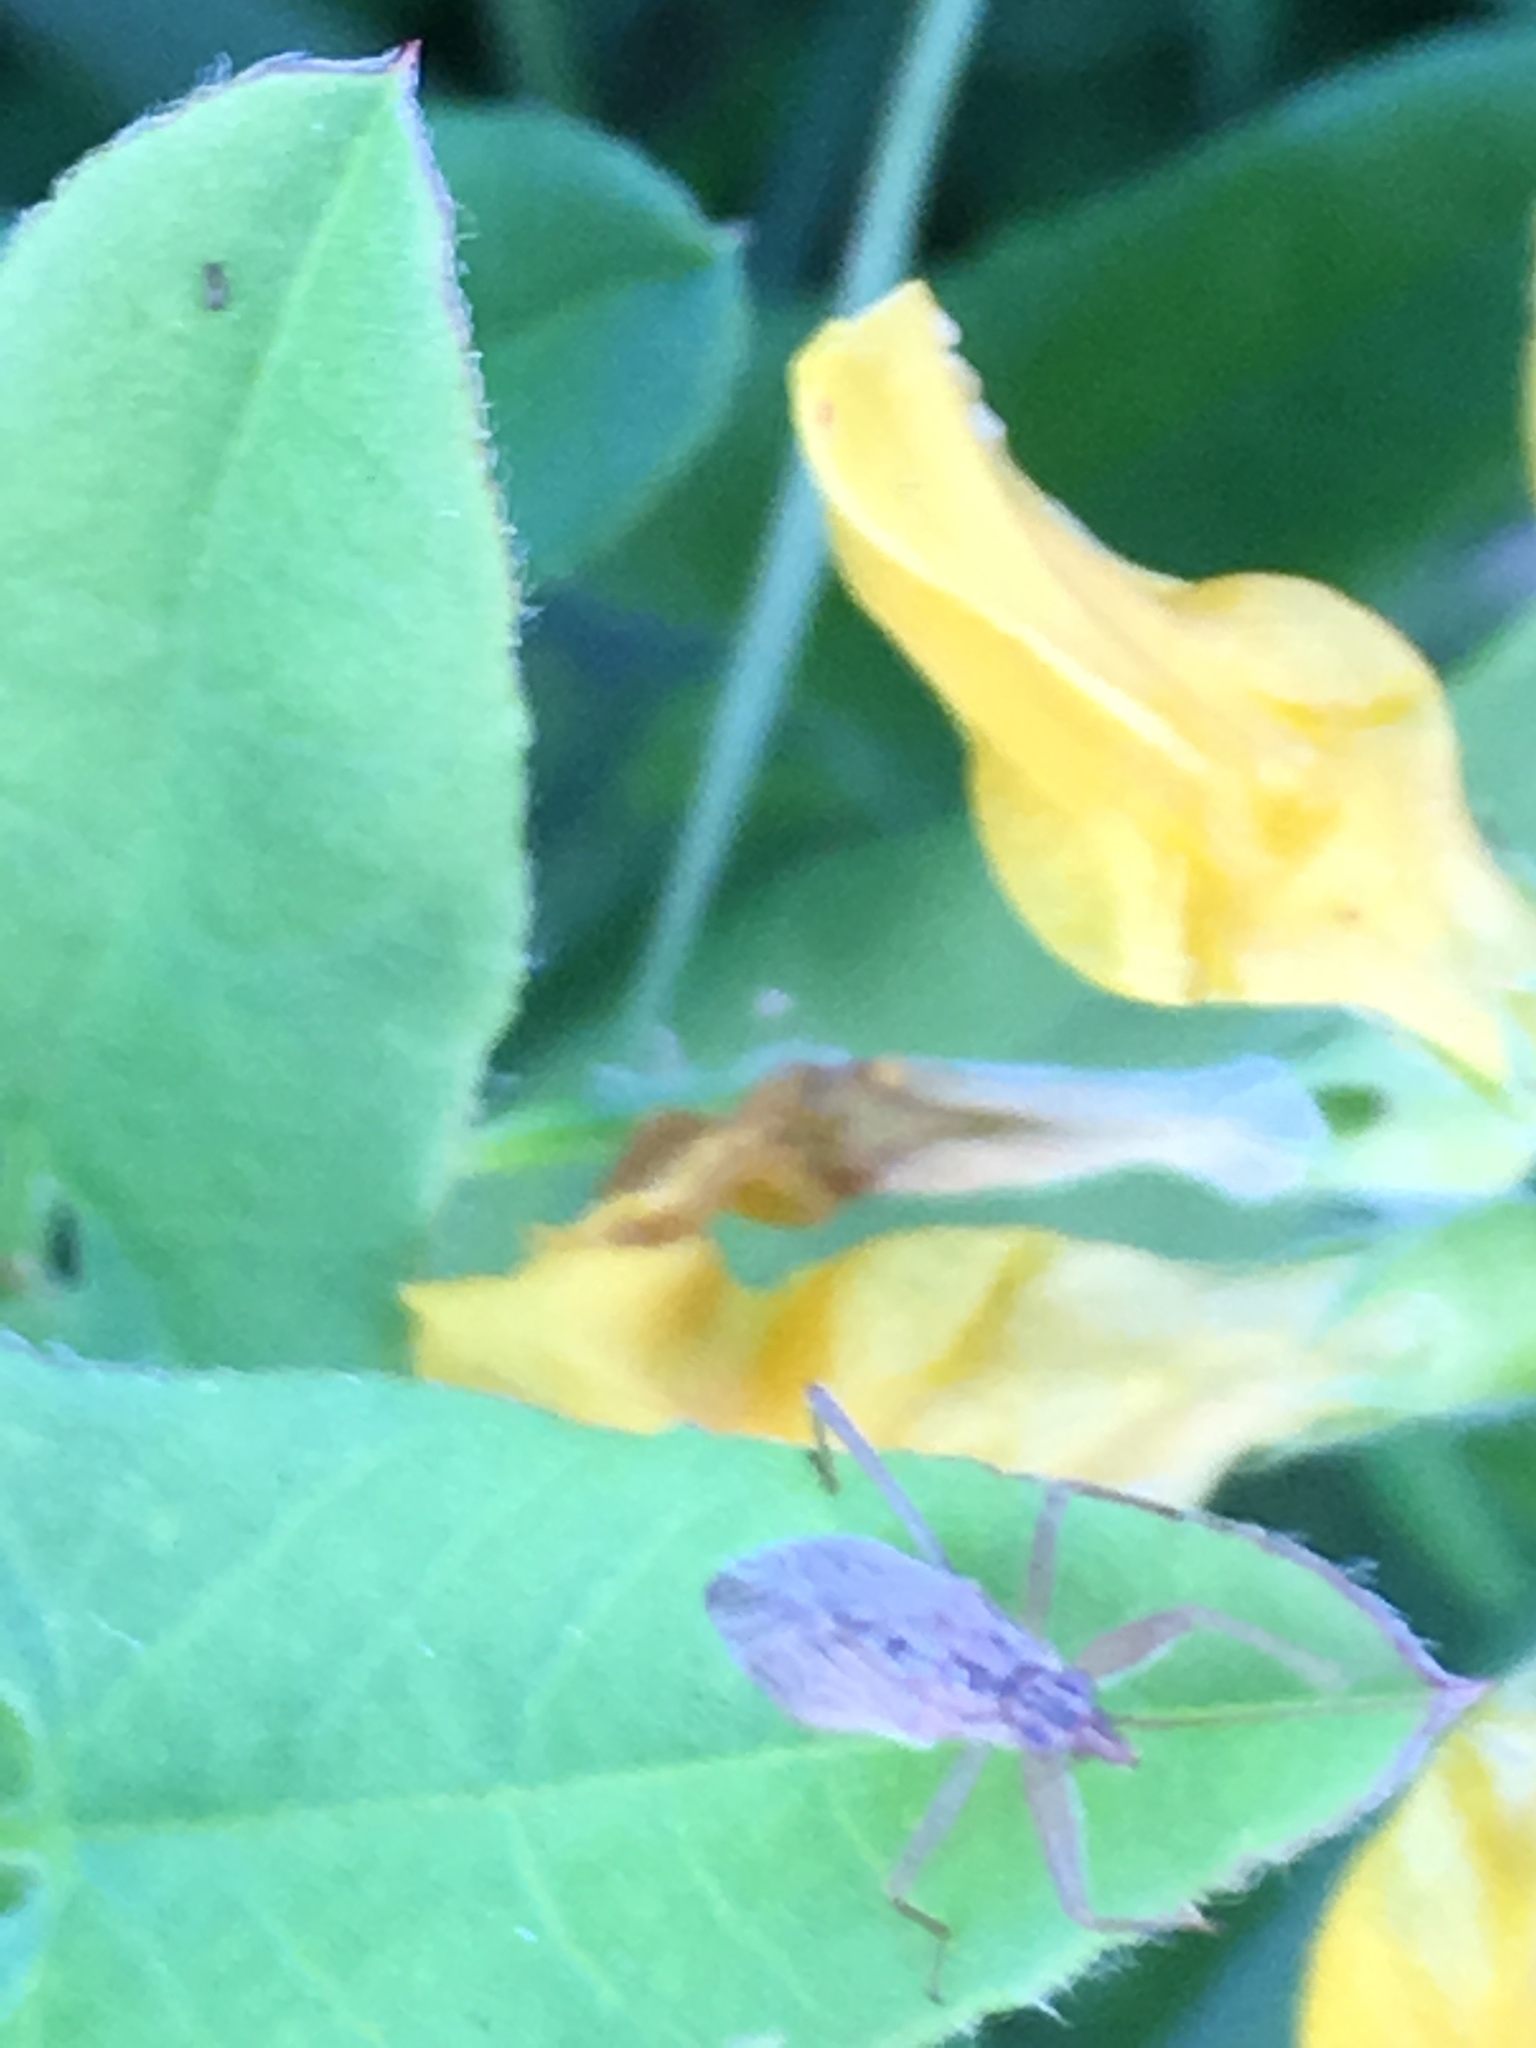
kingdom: Animalia
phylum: Arthropoda
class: Insecta
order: Hemiptera
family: Nabidae
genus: Nabis
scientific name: Nabis
